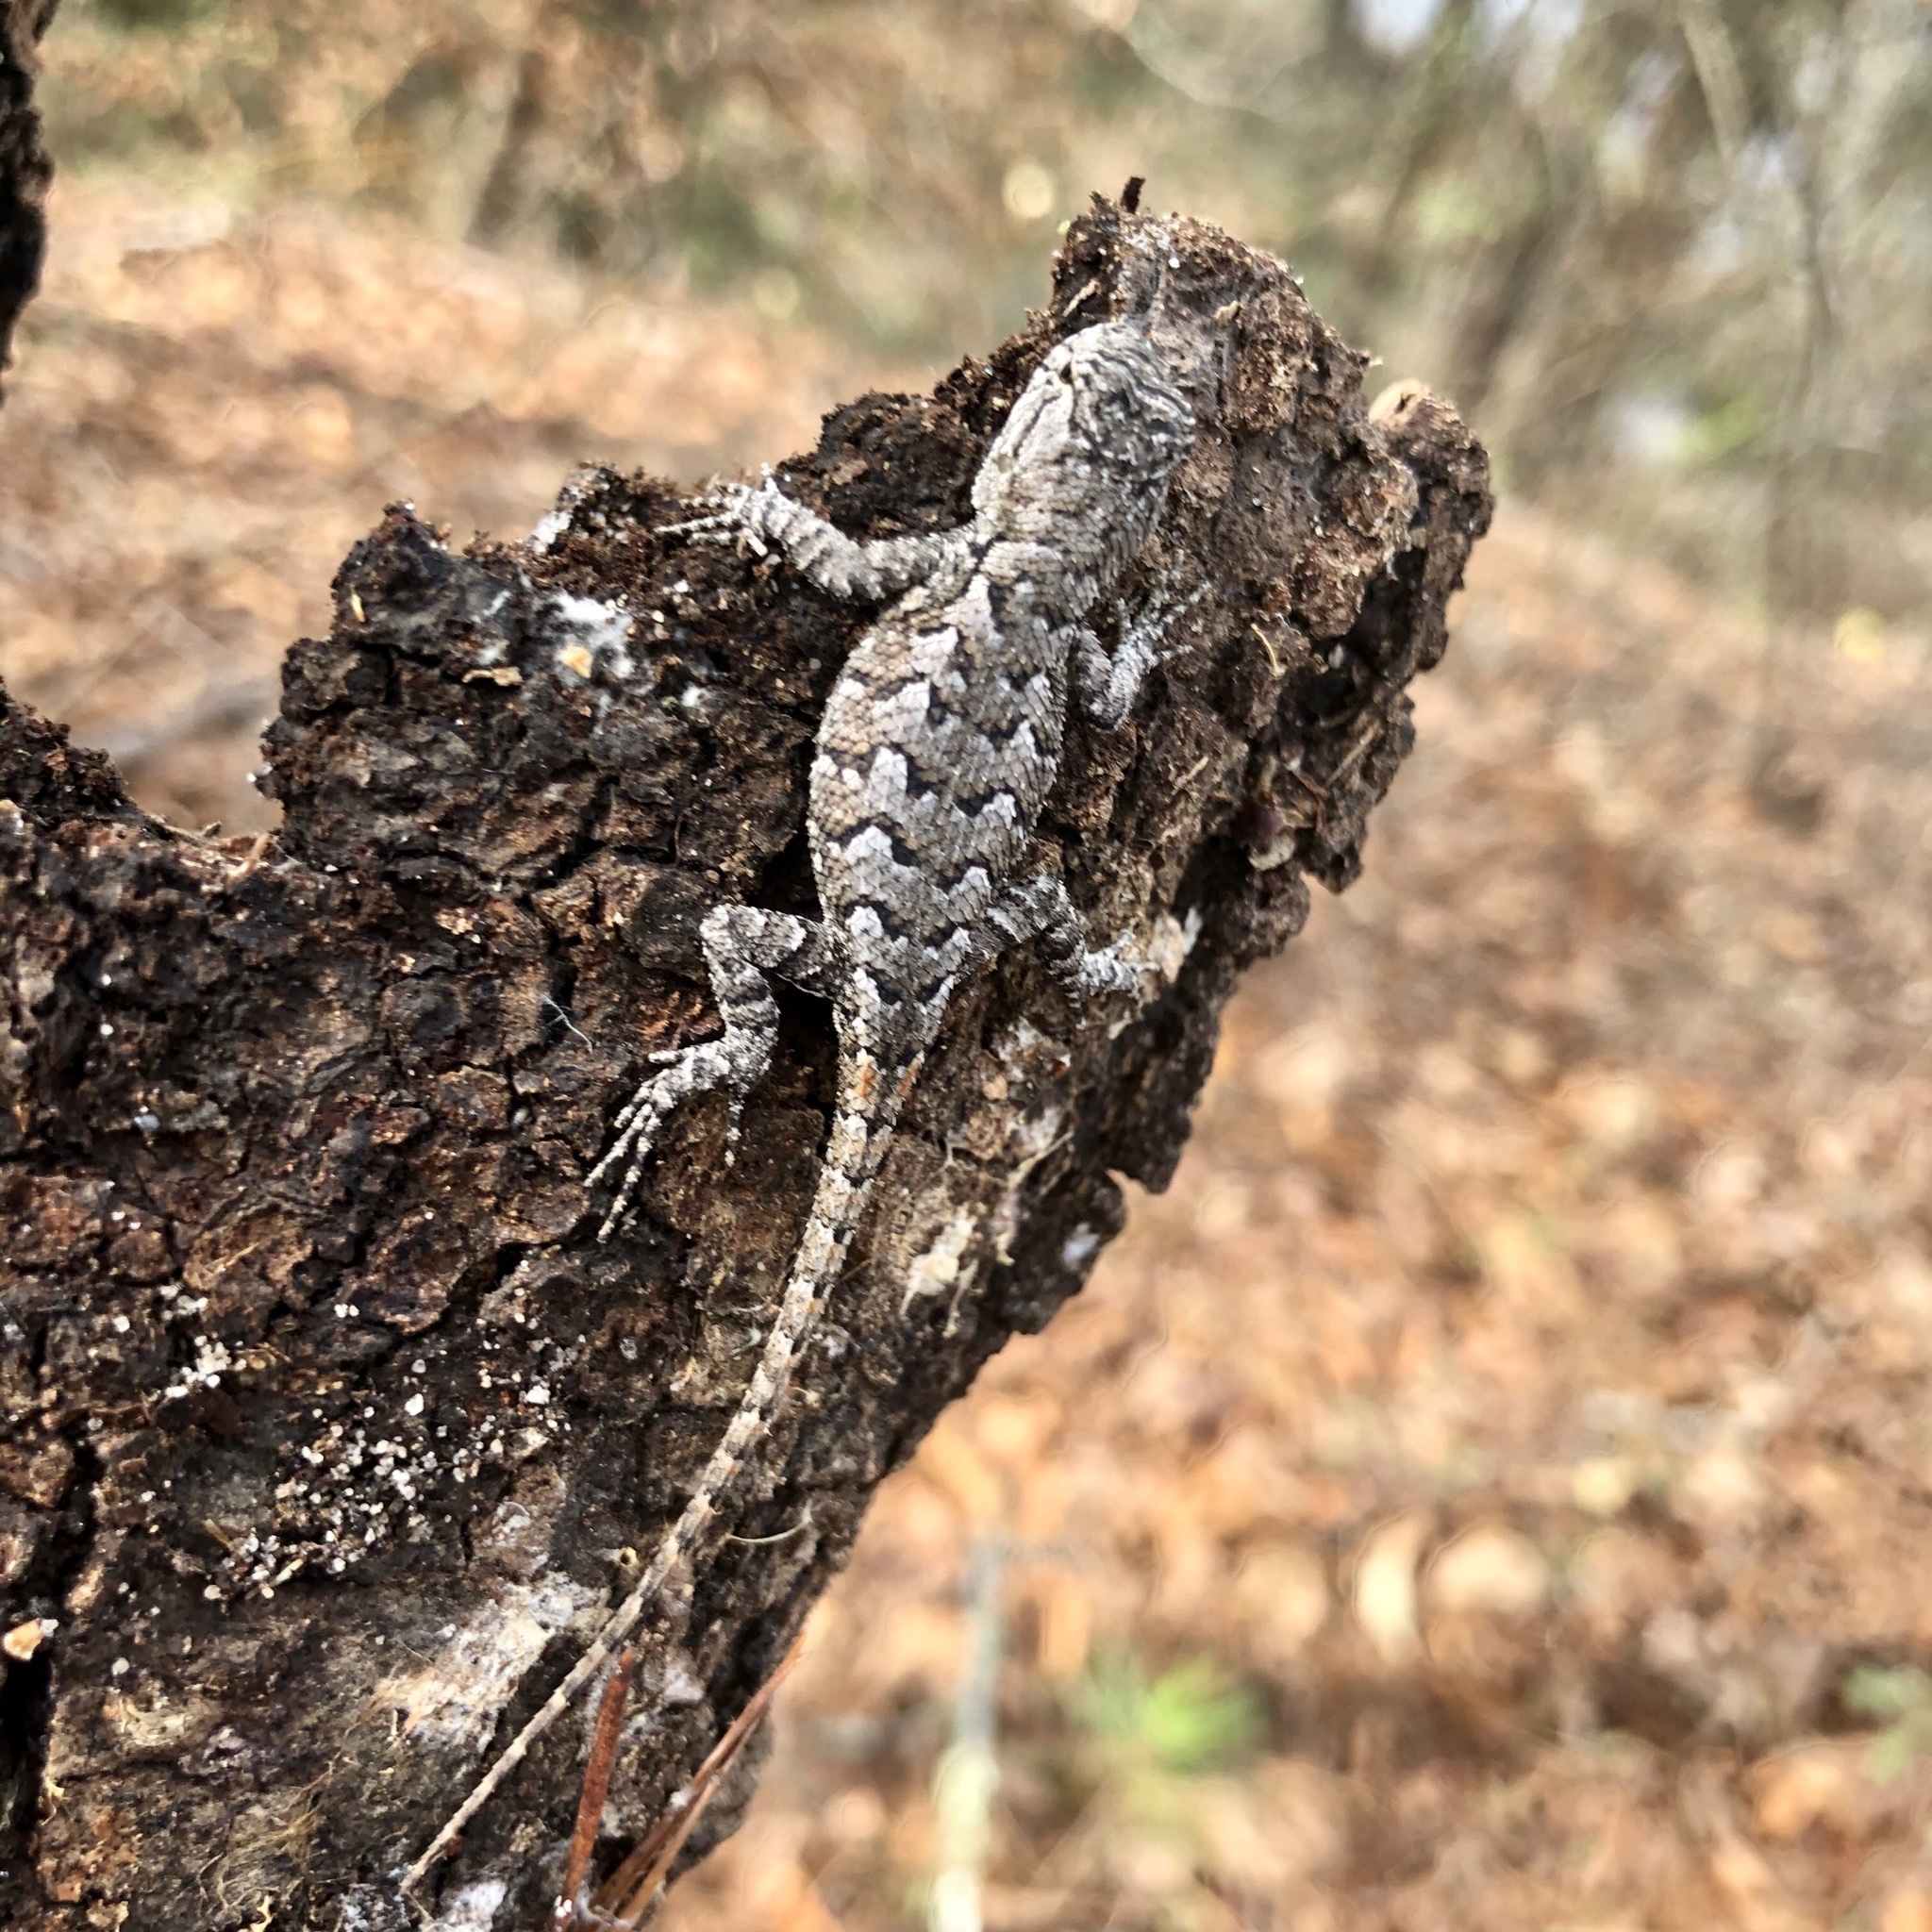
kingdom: Animalia
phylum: Chordata
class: Squamata
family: Phrynosomatidae
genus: Sceloporus
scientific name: Sceloporus consobrinus
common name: Southern prairie lizard
